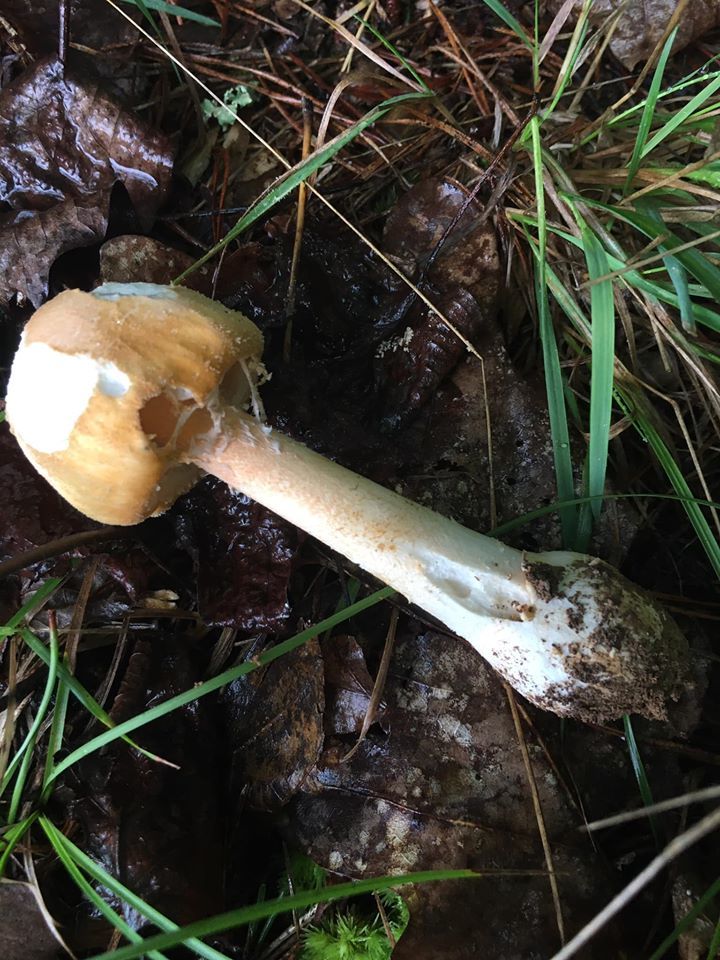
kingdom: Fungi
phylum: Basidiomycota
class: Agaricomycetes
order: Agaricales
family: Amanitaceae
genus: Amanita
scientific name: Amanita roseotincta
